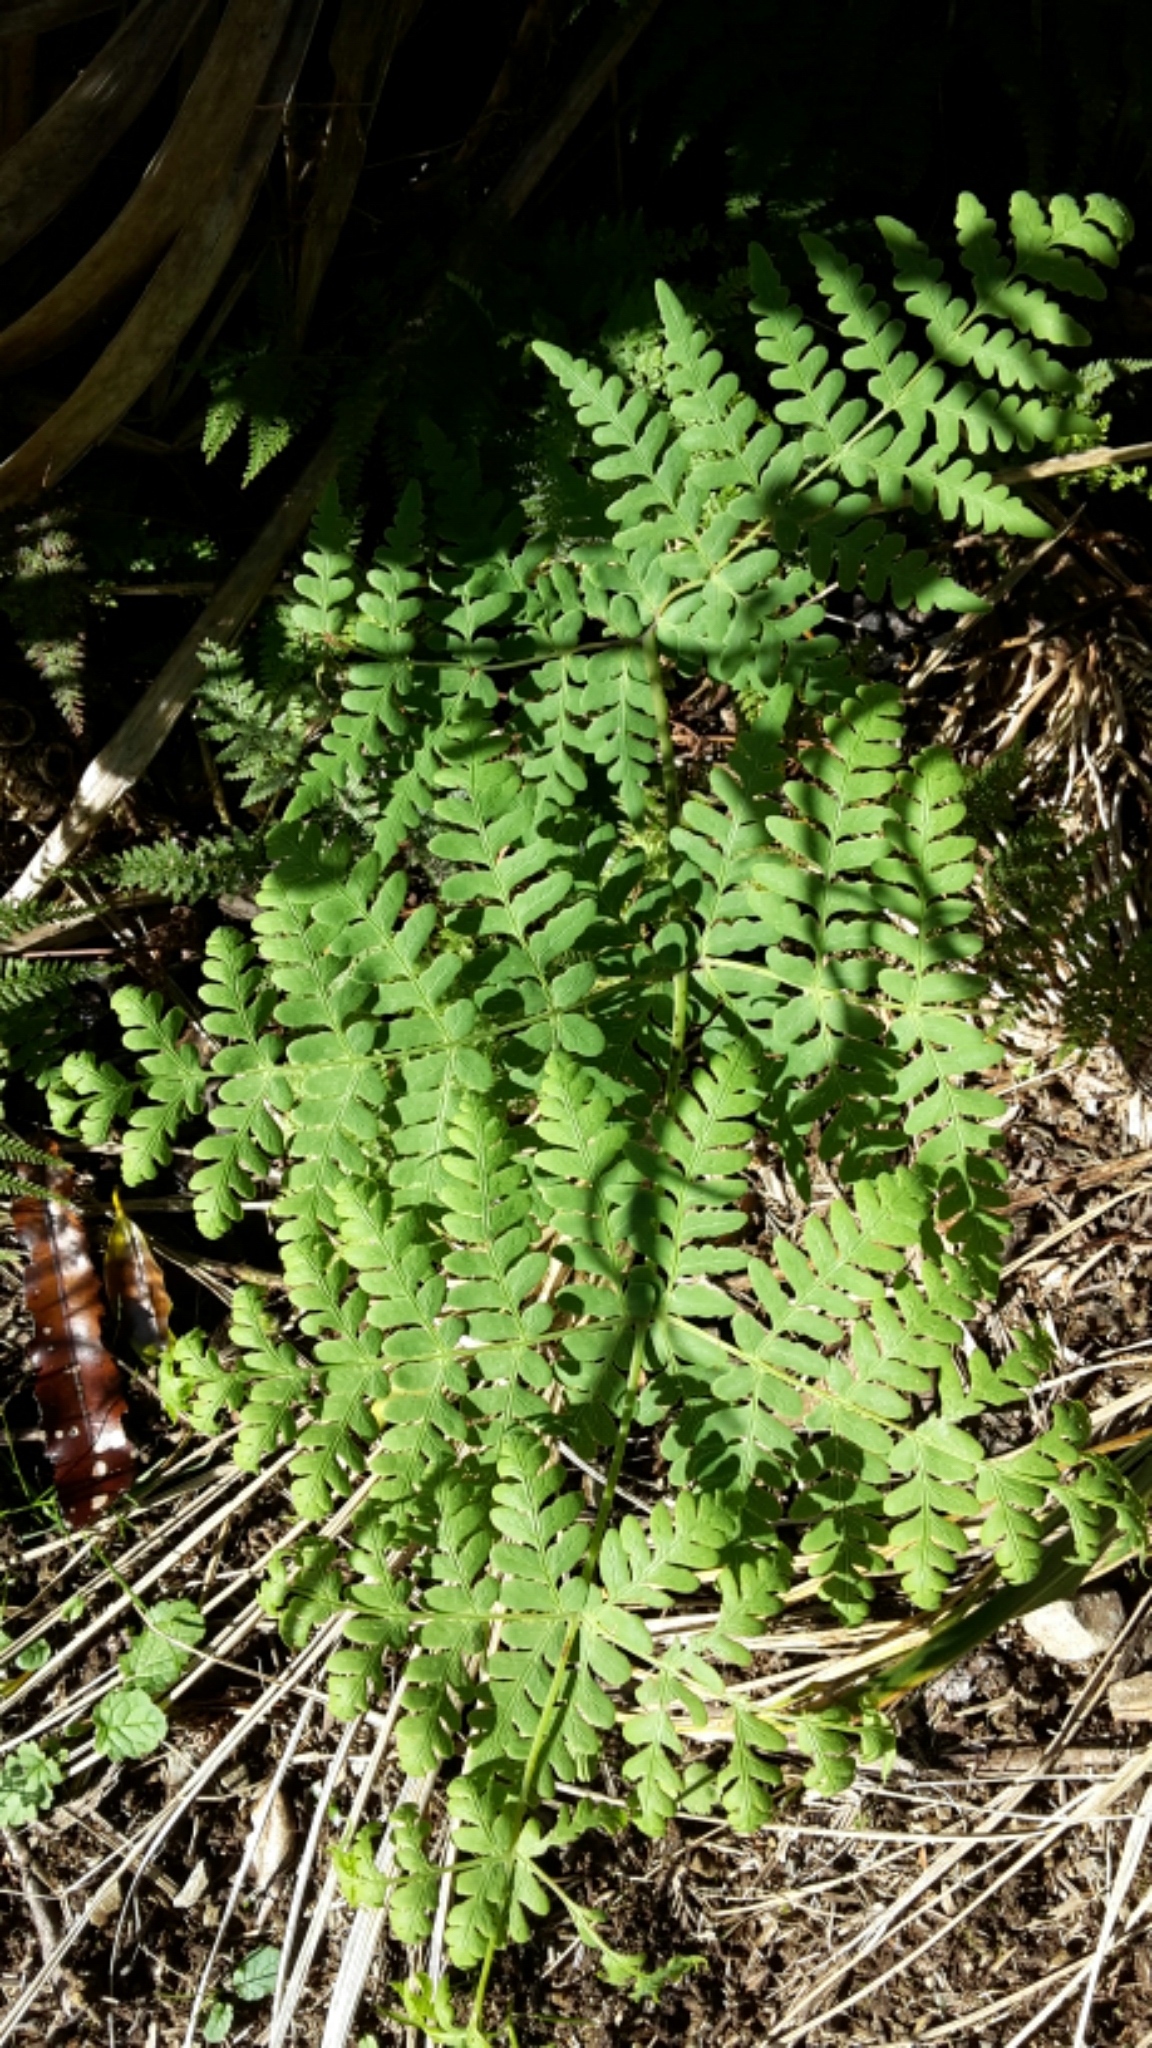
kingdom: Plantae
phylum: Tracheophyta
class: Polypodiopsida
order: Polypodiales
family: Dennstaedtiaceae
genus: Histiopteris
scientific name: Histiopteris incisa
